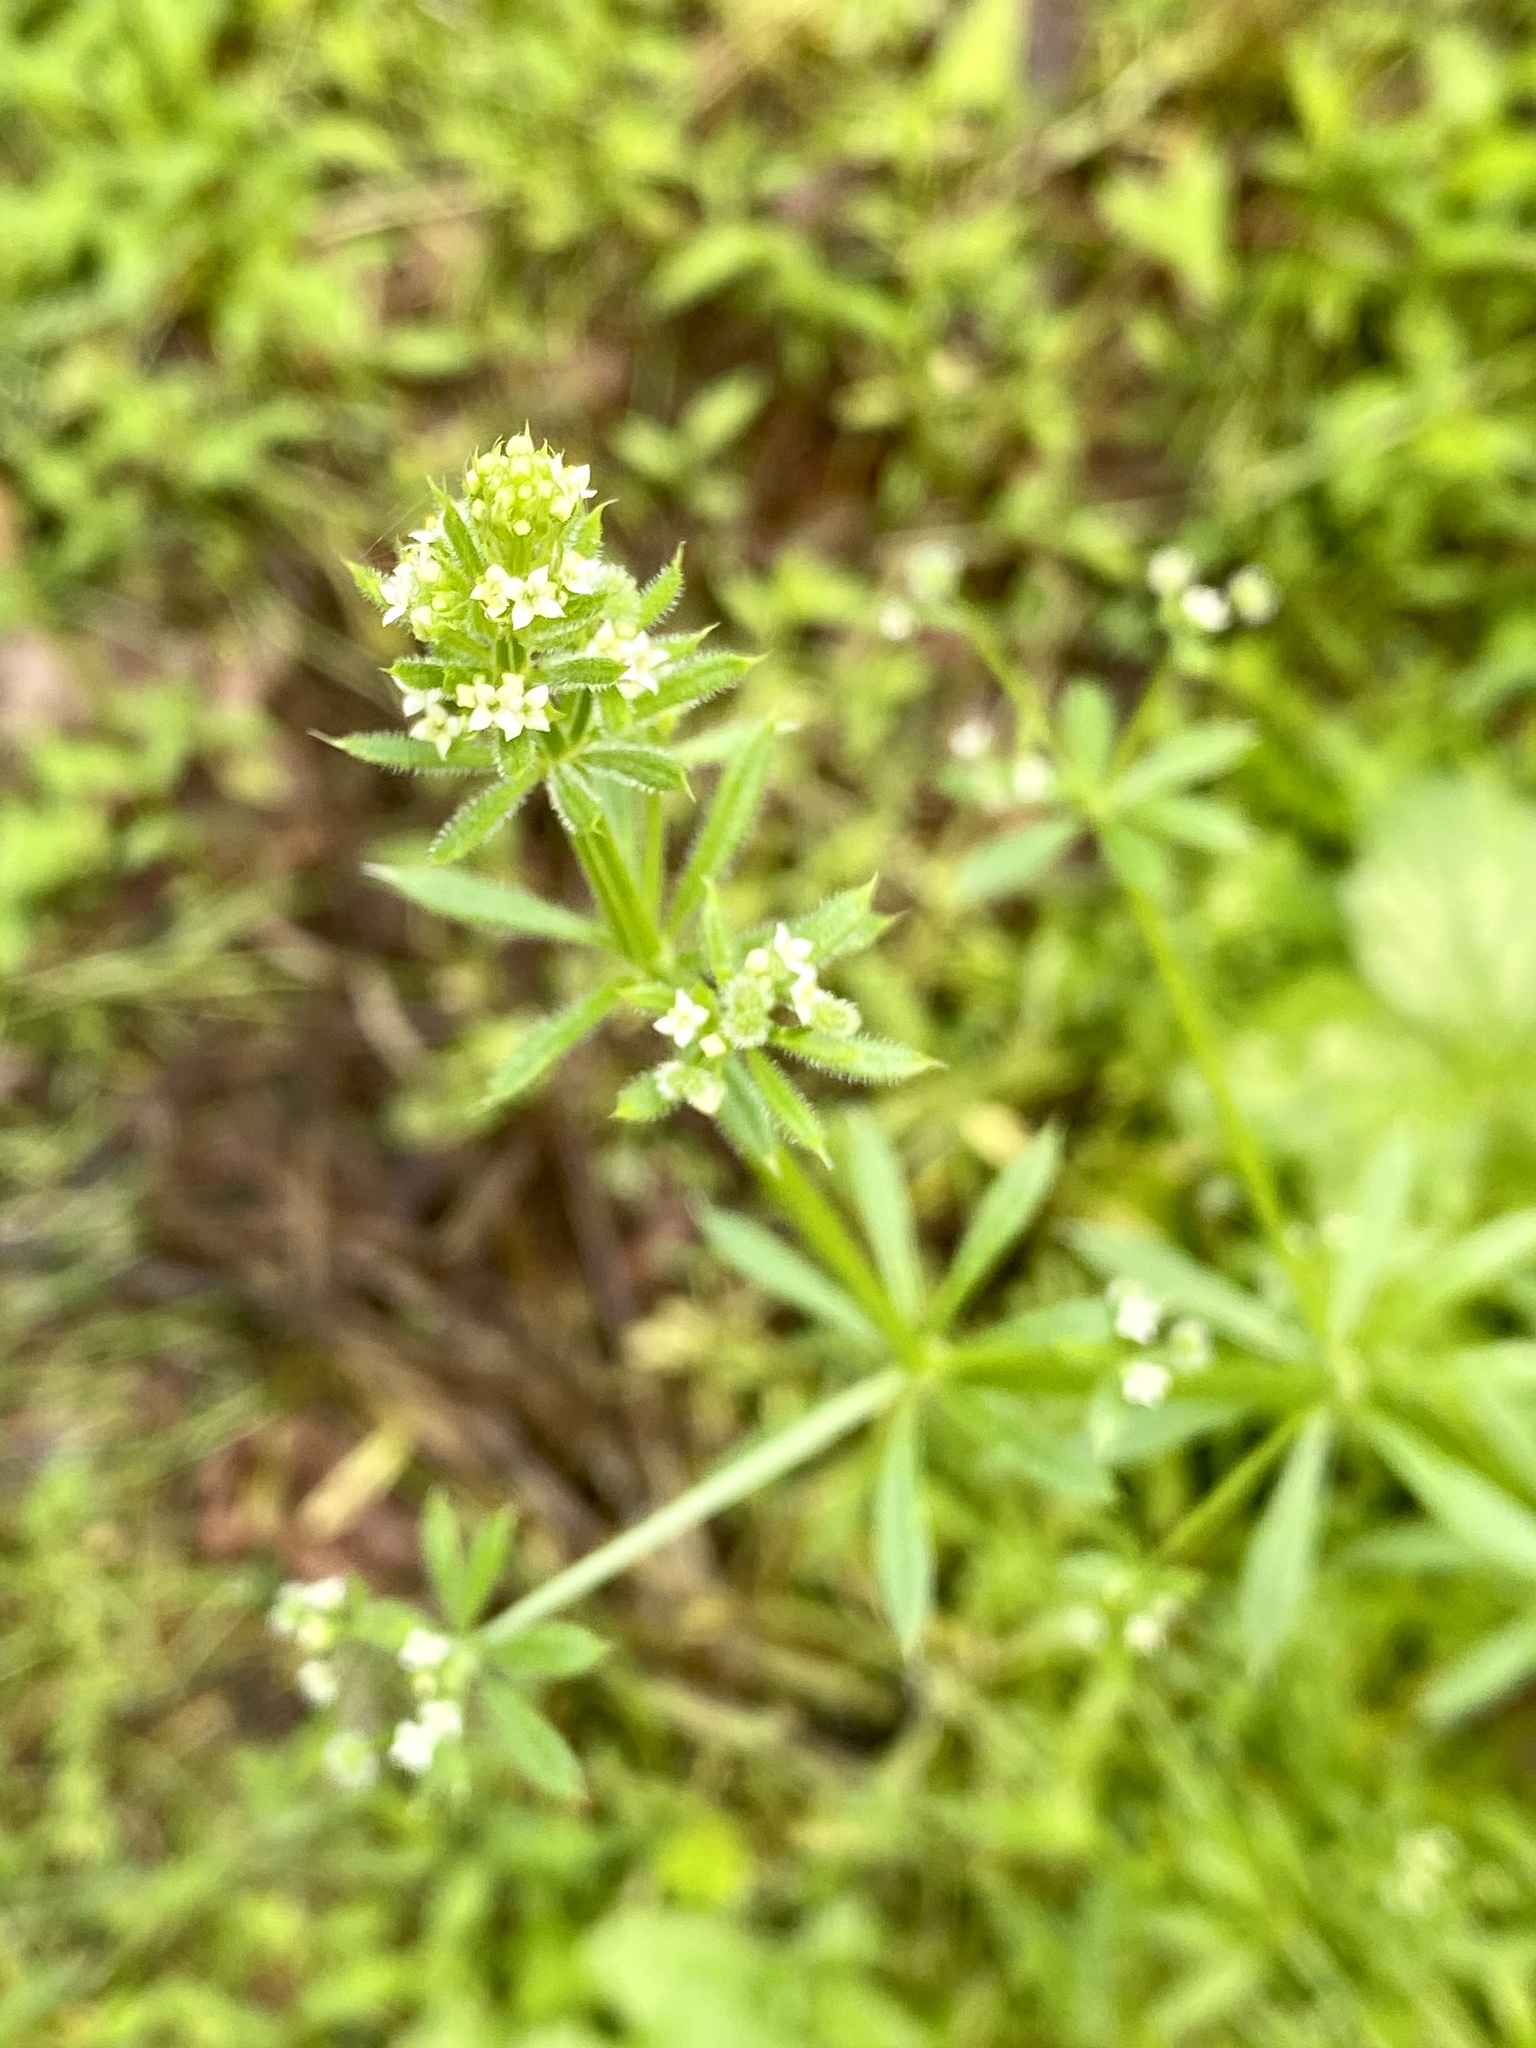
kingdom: Plantae
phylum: Tracheophyta
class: Magnoliopsida
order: Gentianales
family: Rubiaceae
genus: Galium
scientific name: Galium aparine
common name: Cleavers
